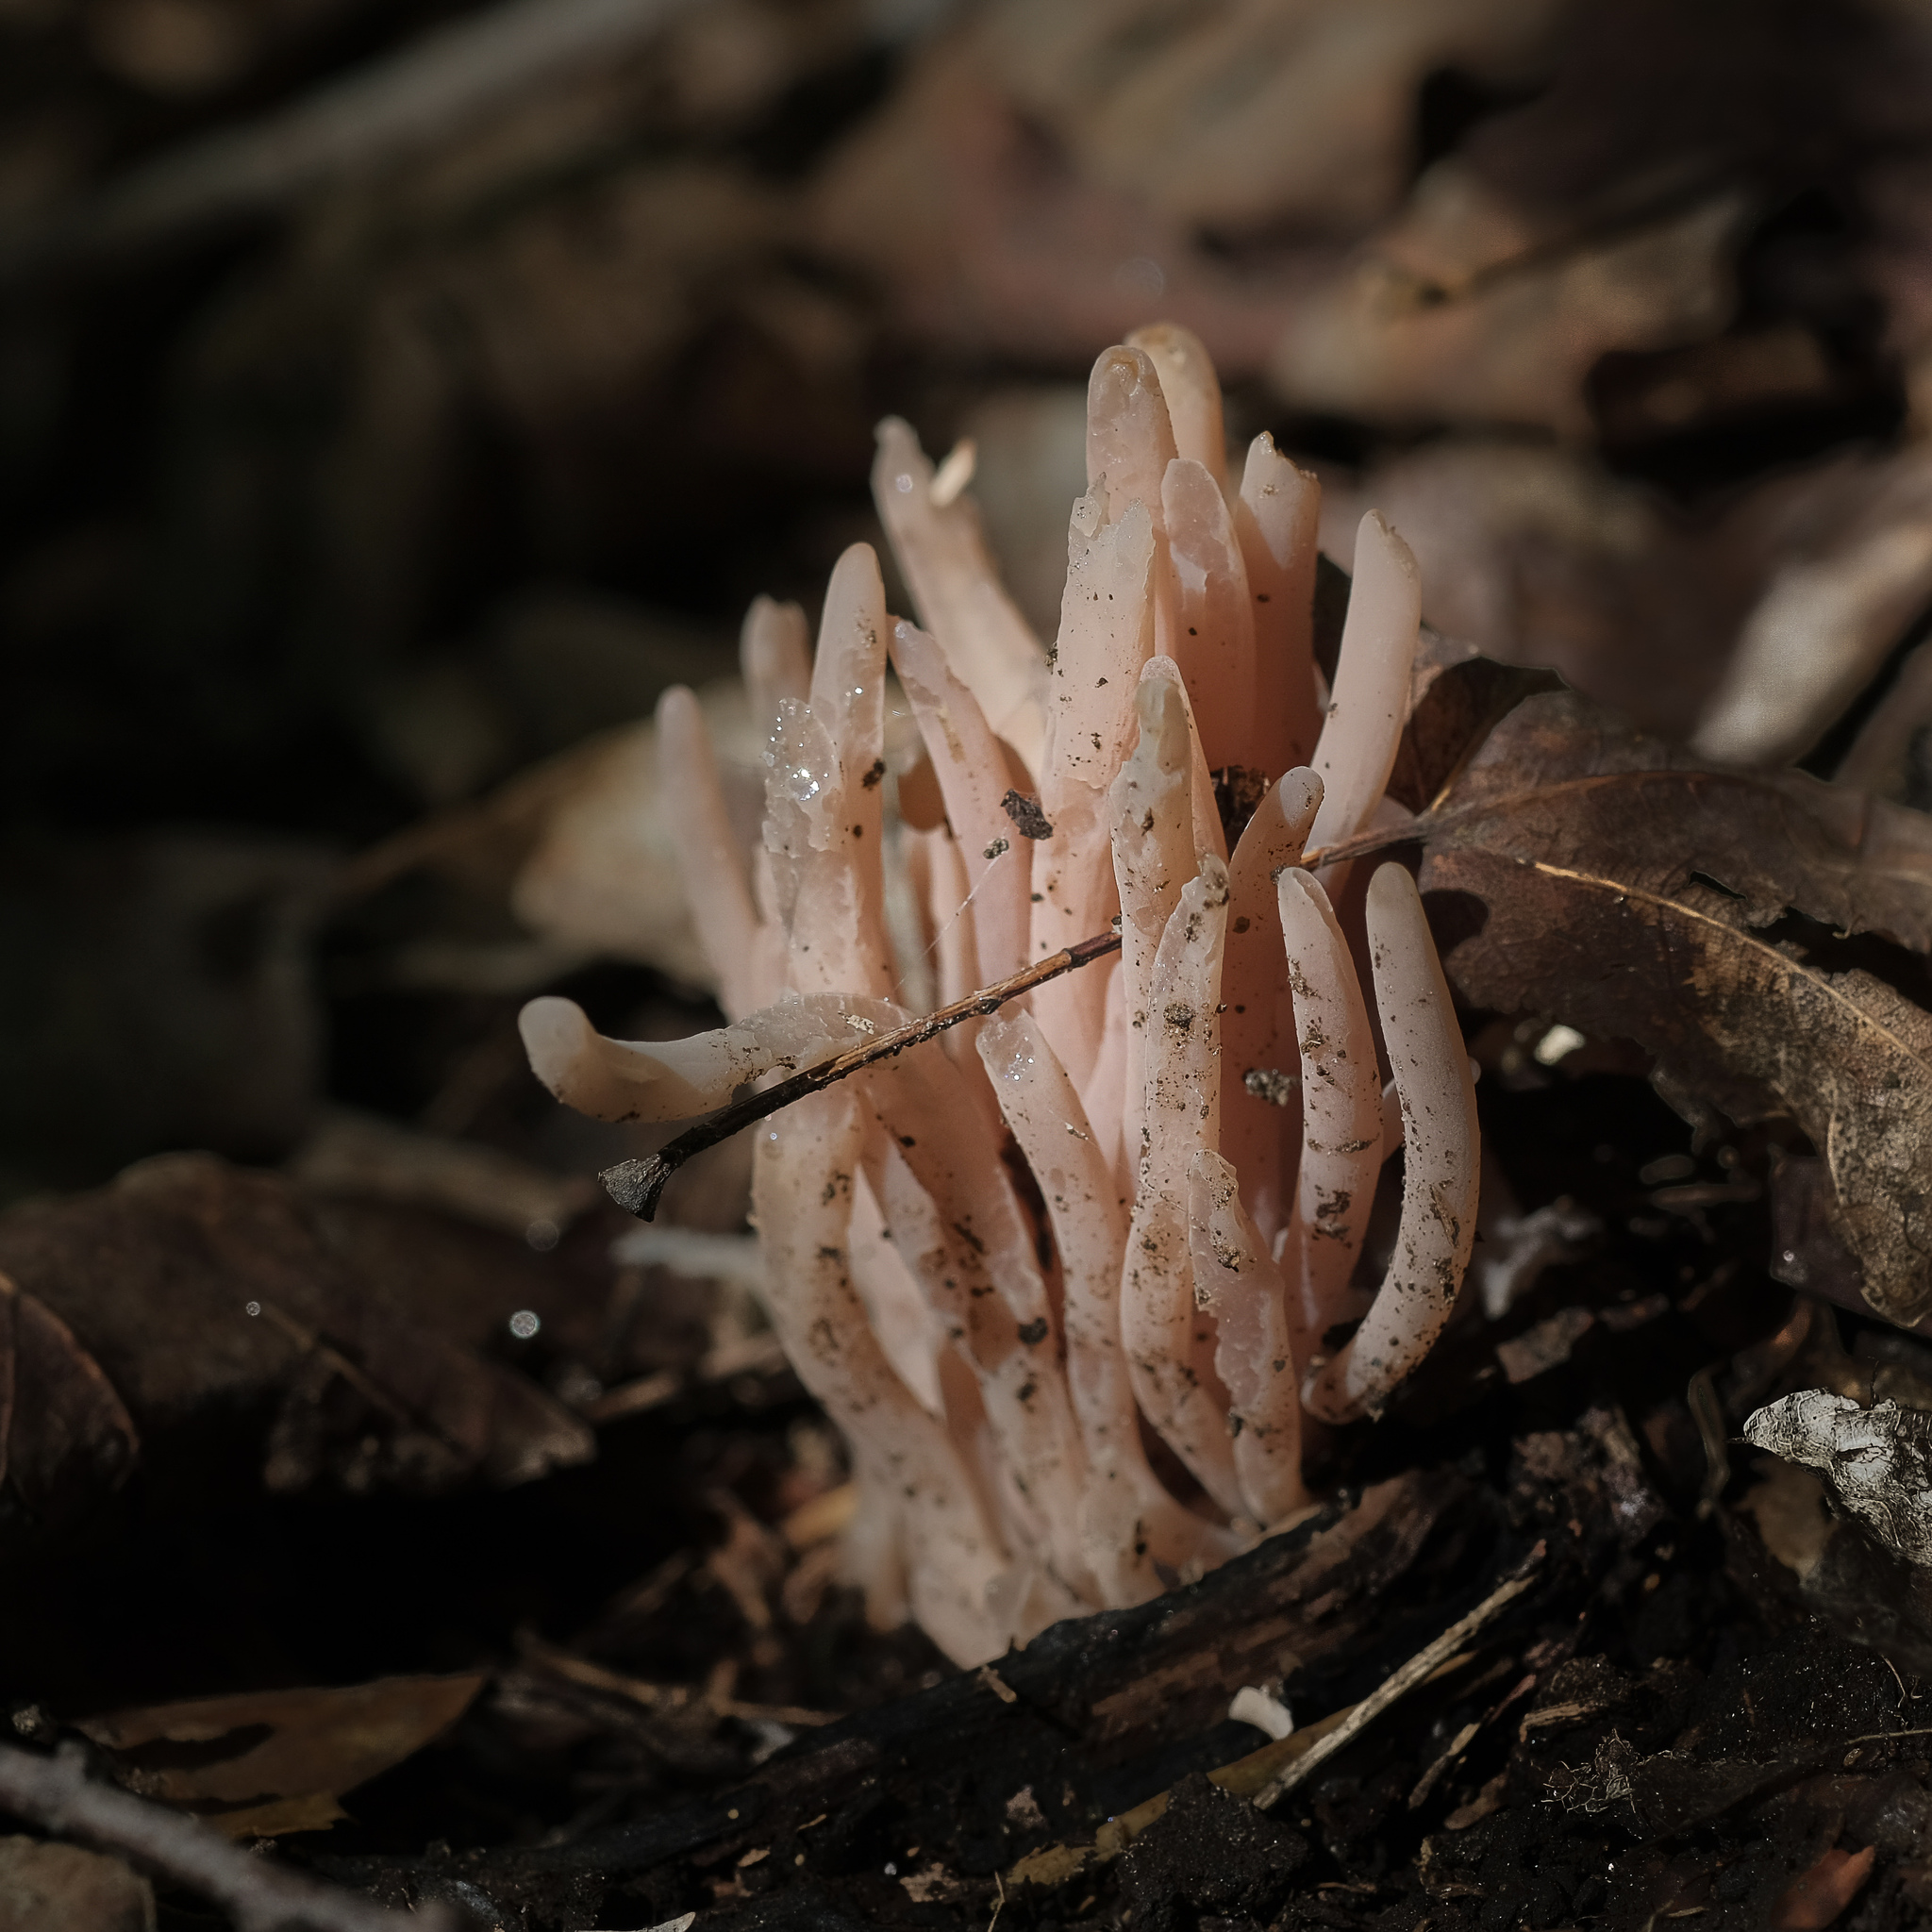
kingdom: Fungi
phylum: Basidiomycota
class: Agaricomycetes
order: Agaricales
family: Clavariaceae
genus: Clavaria
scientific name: Clavaria fumosa
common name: Smoky spindles
